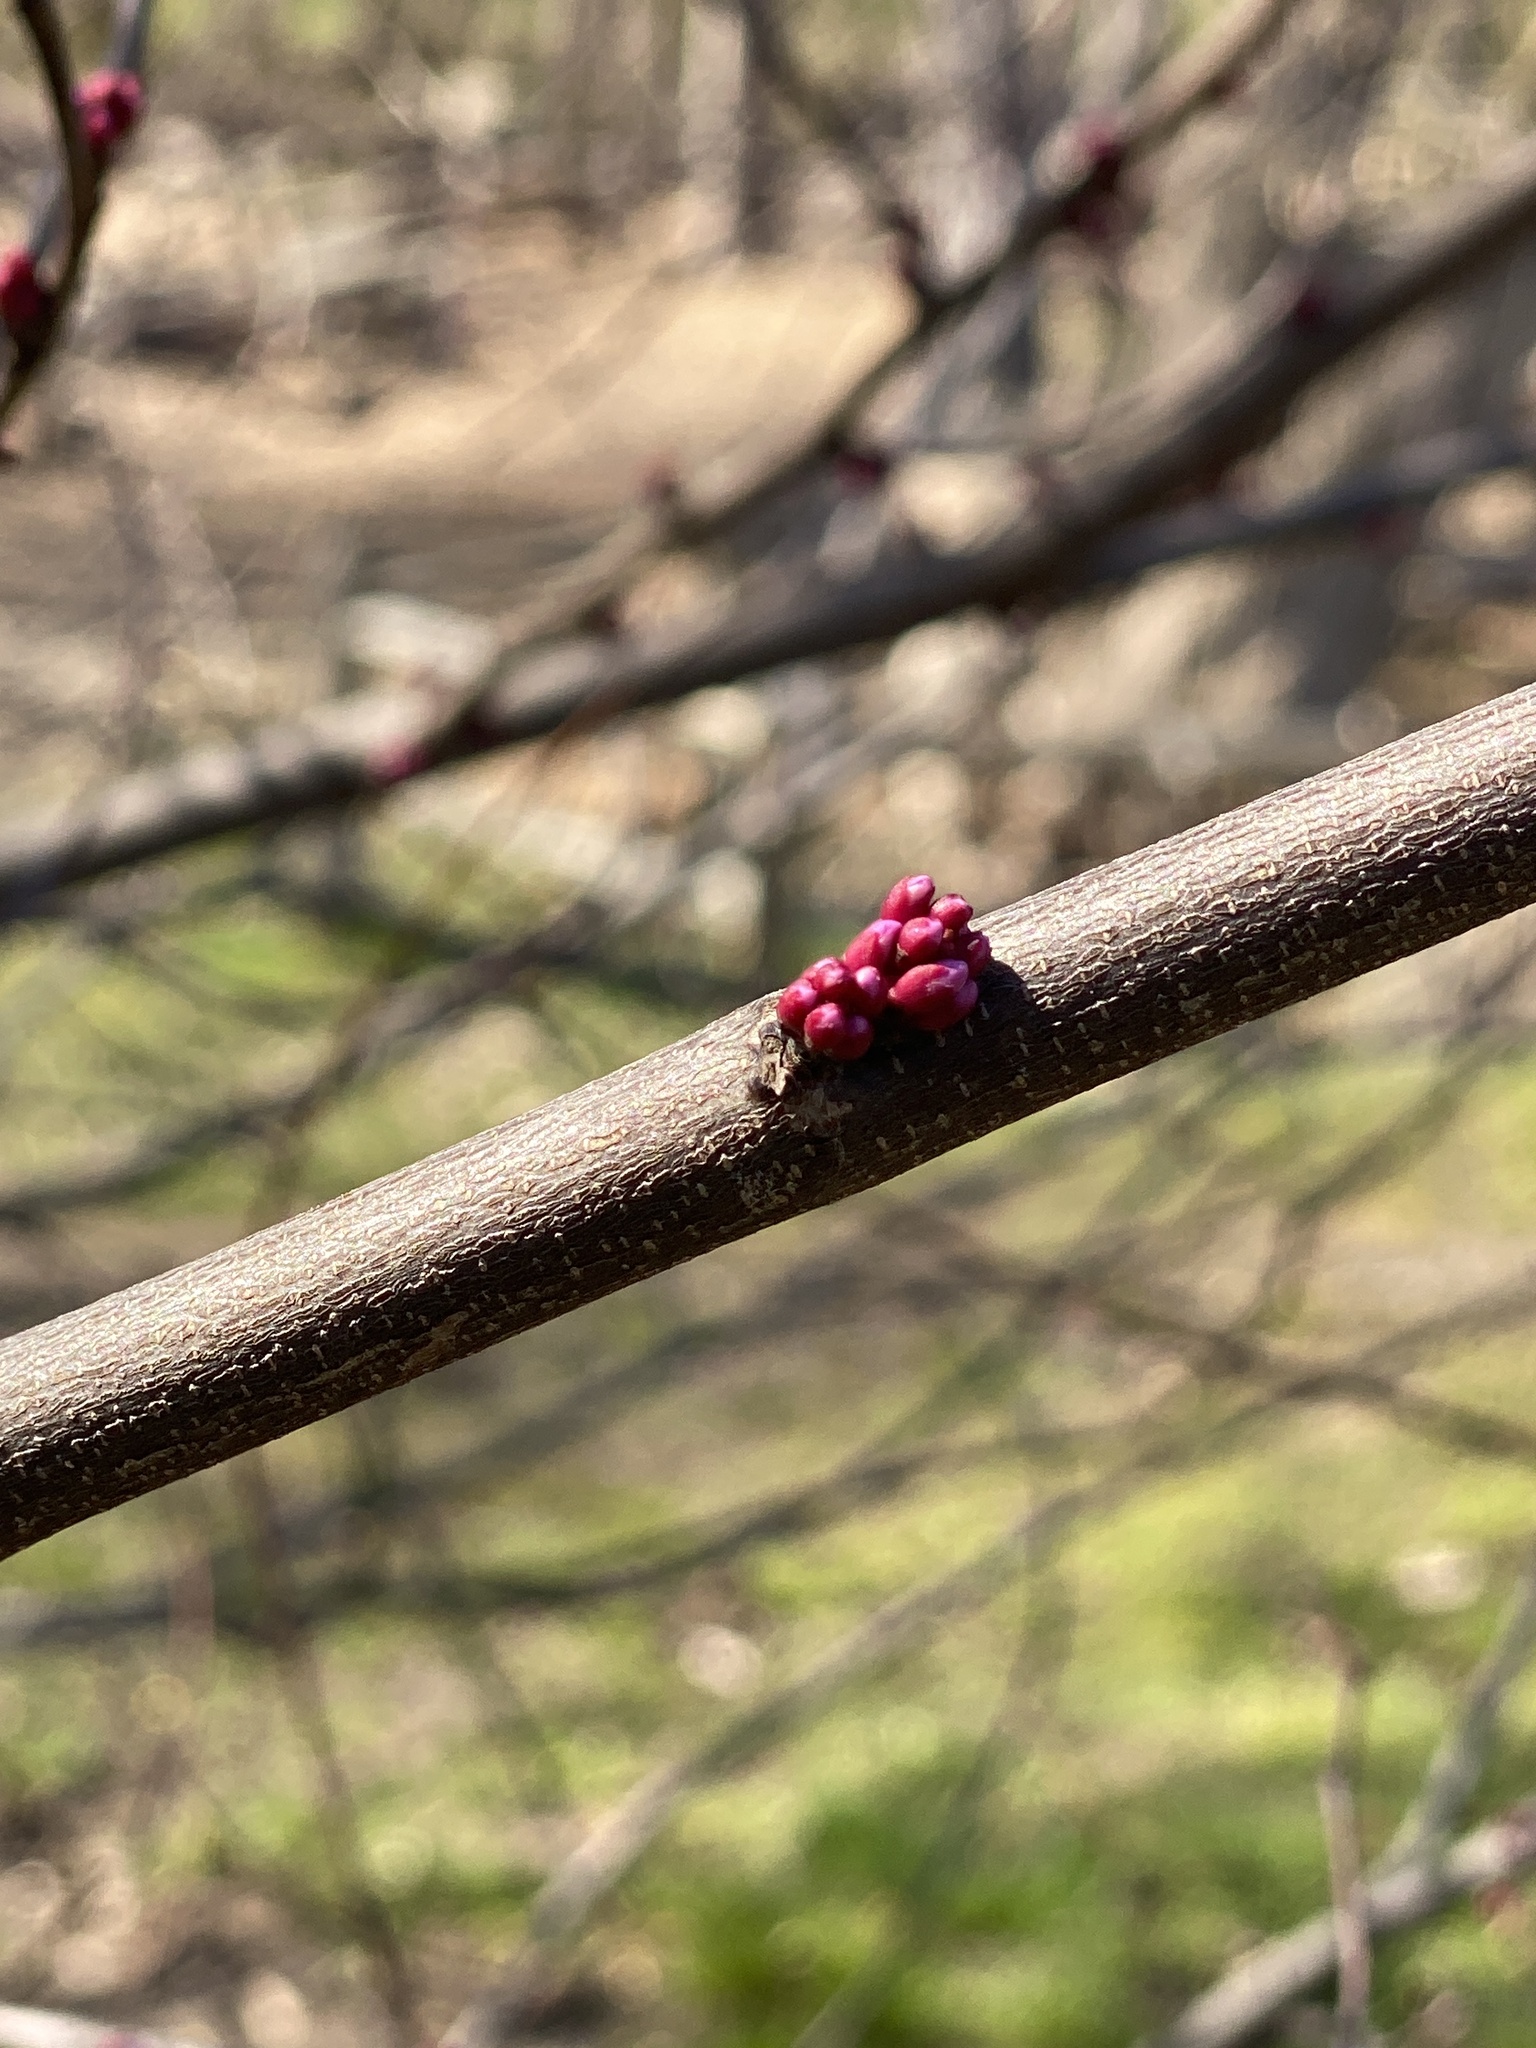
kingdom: Plantae
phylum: Tracheophyta
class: Magnoliopsida
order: Fabales
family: Fabaceae
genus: Cercis
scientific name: Cercis canadensis
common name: Eastern redbud
